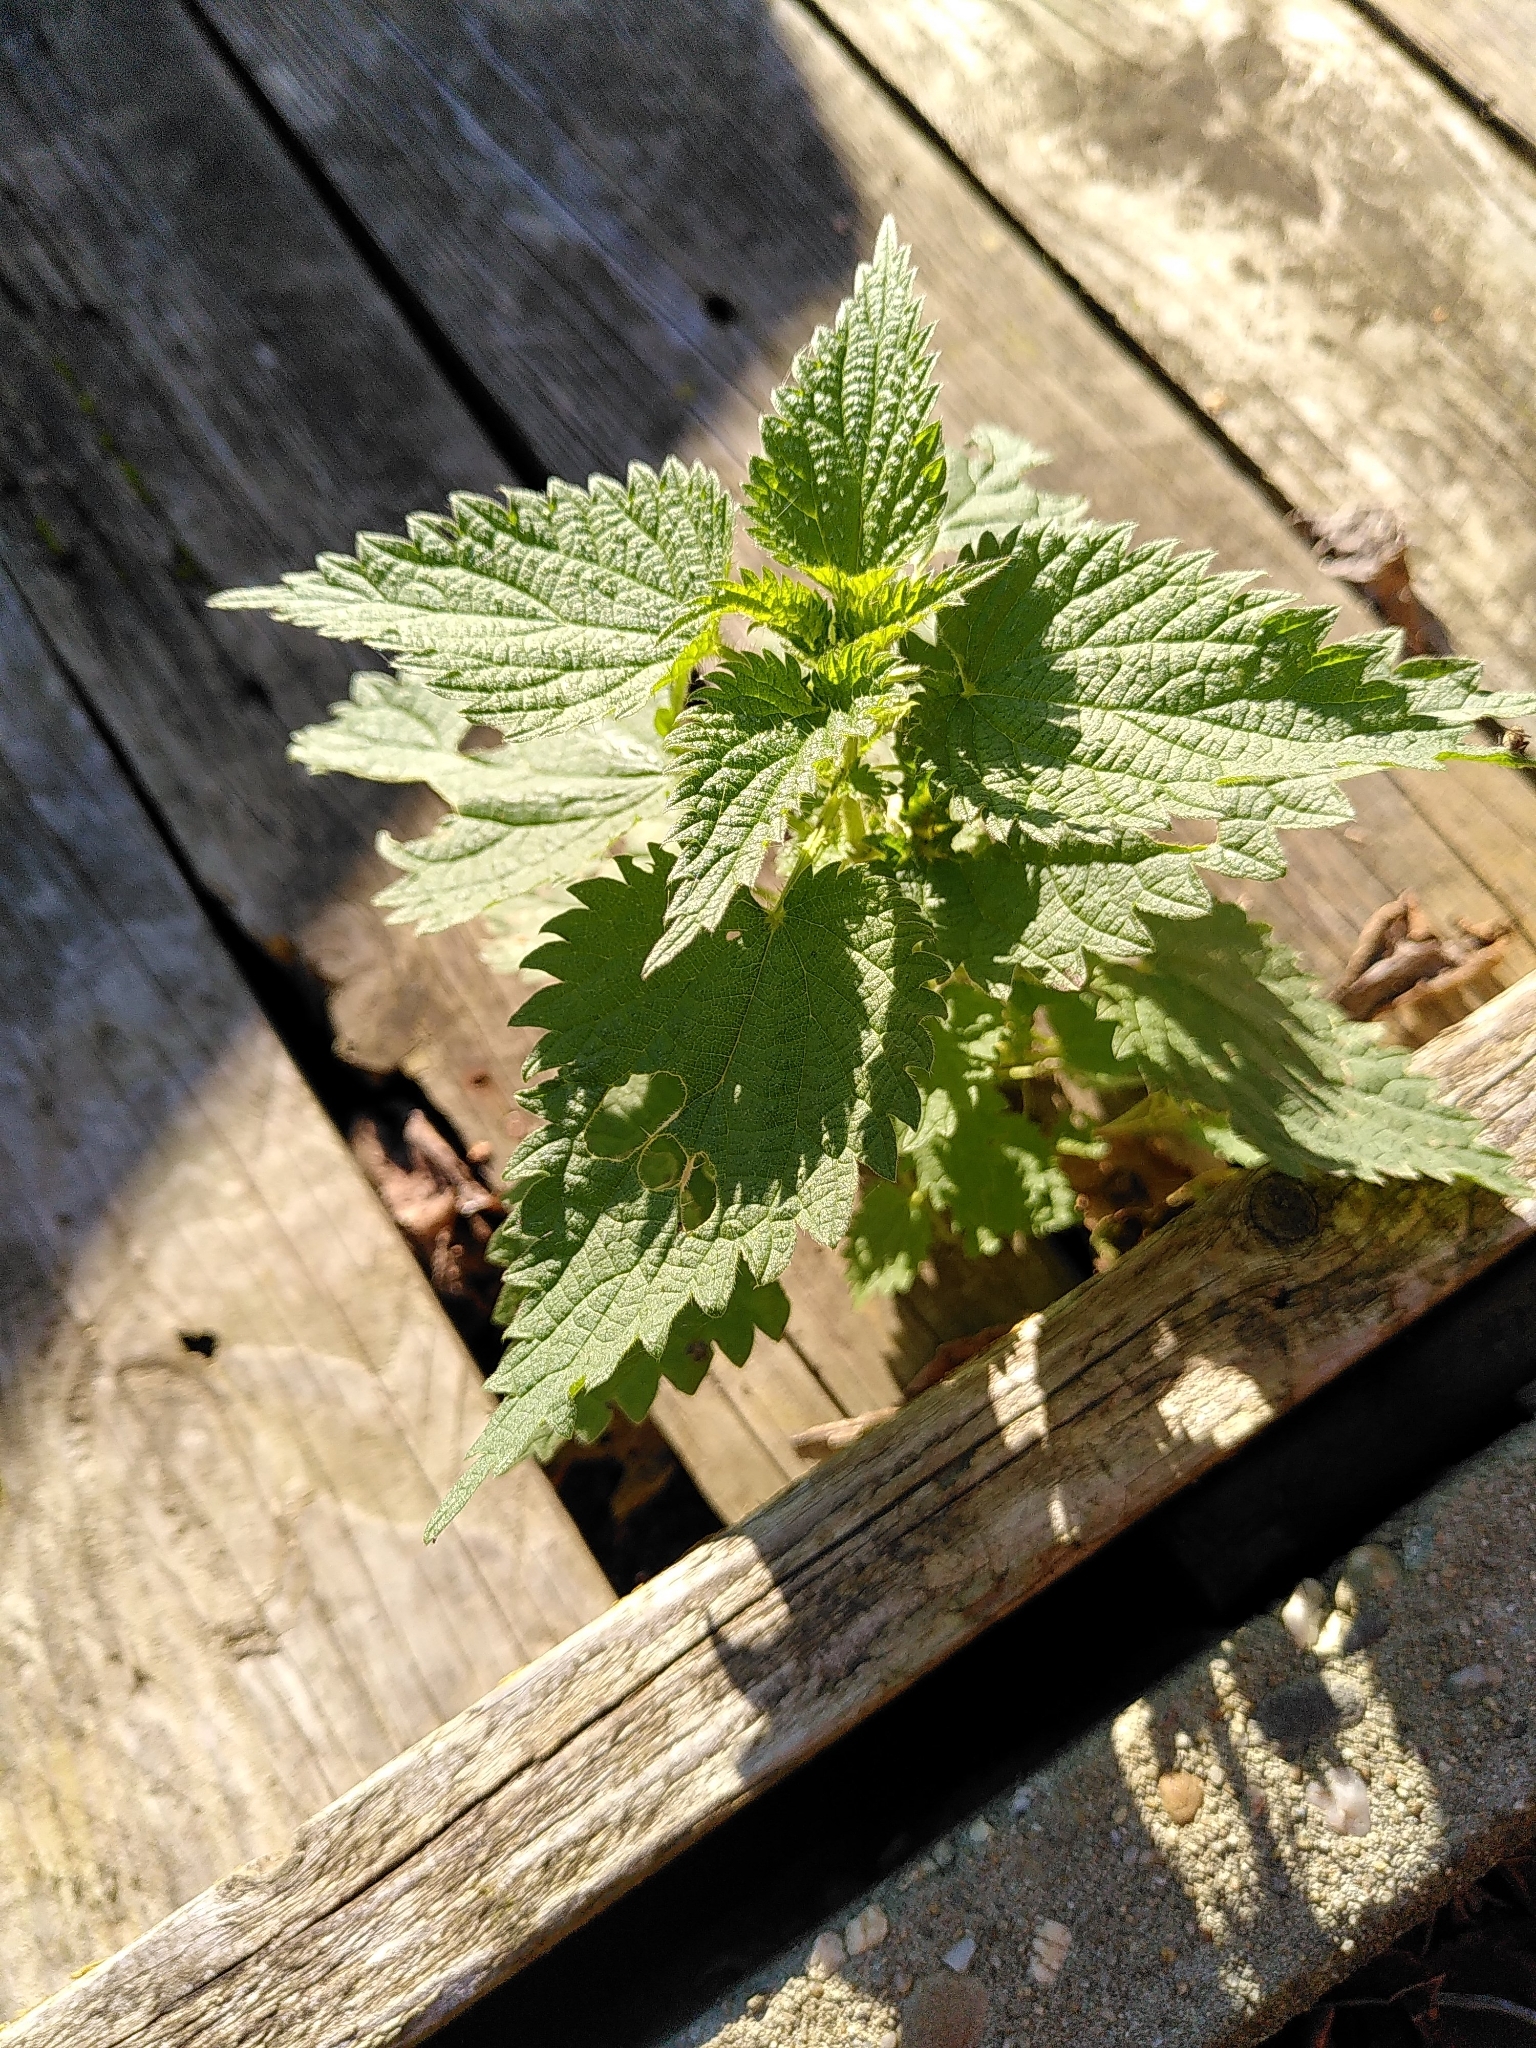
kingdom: Plantae
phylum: Tracheophyta
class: Magnoliopsida
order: Rosales
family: Urticaceae
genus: Urtica
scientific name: Urtica dioica
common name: Common nettle
